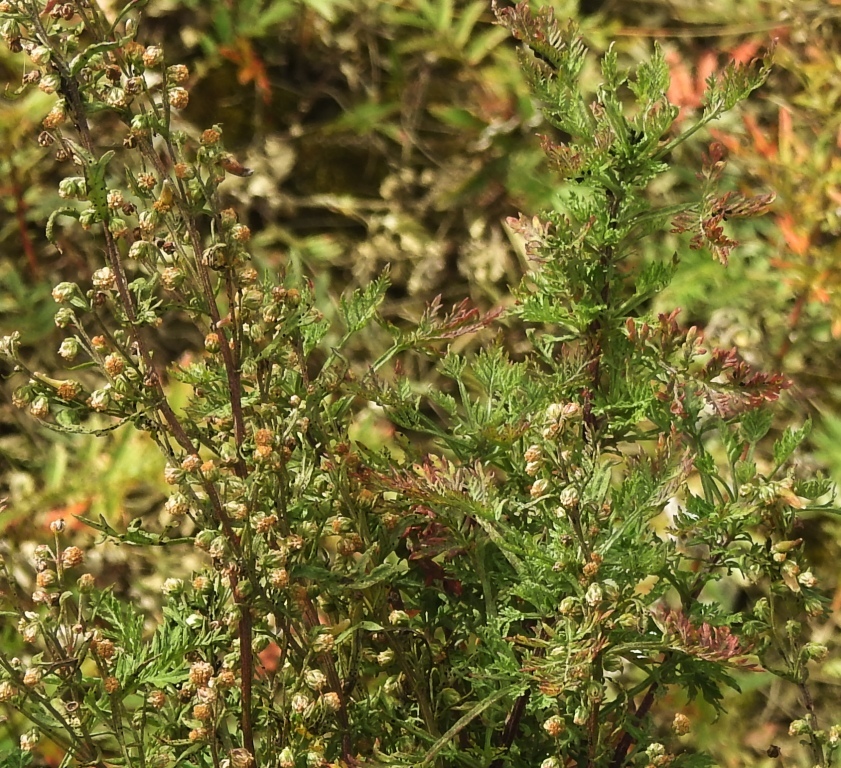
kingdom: Plantae
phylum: Tracheophyta
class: Magnoliopsida
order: Asterales
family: Asteraceae
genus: Artemisia
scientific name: Artemisia gmelinii
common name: Gmelin's wormwood
